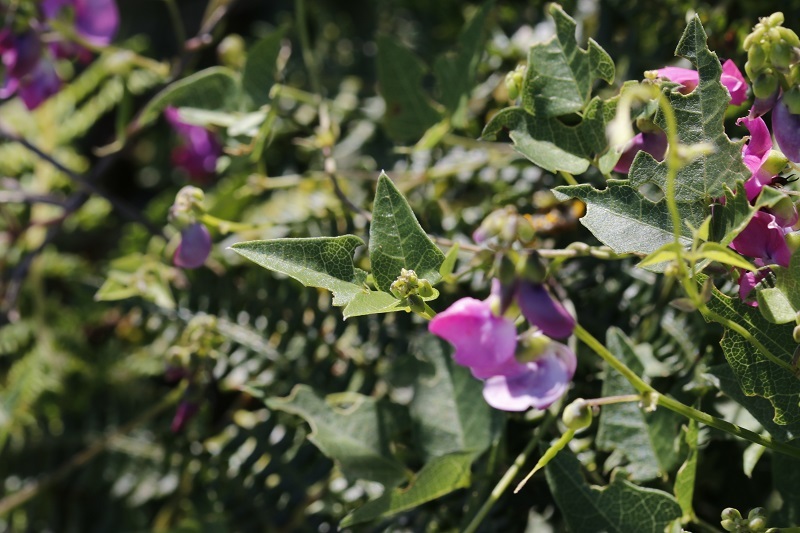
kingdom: Plantae
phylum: Tracheophyta
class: Magnoliopsida
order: Fabales
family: Fabaceae
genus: Dipogon
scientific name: Dipogon lignosus
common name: Okie bean
